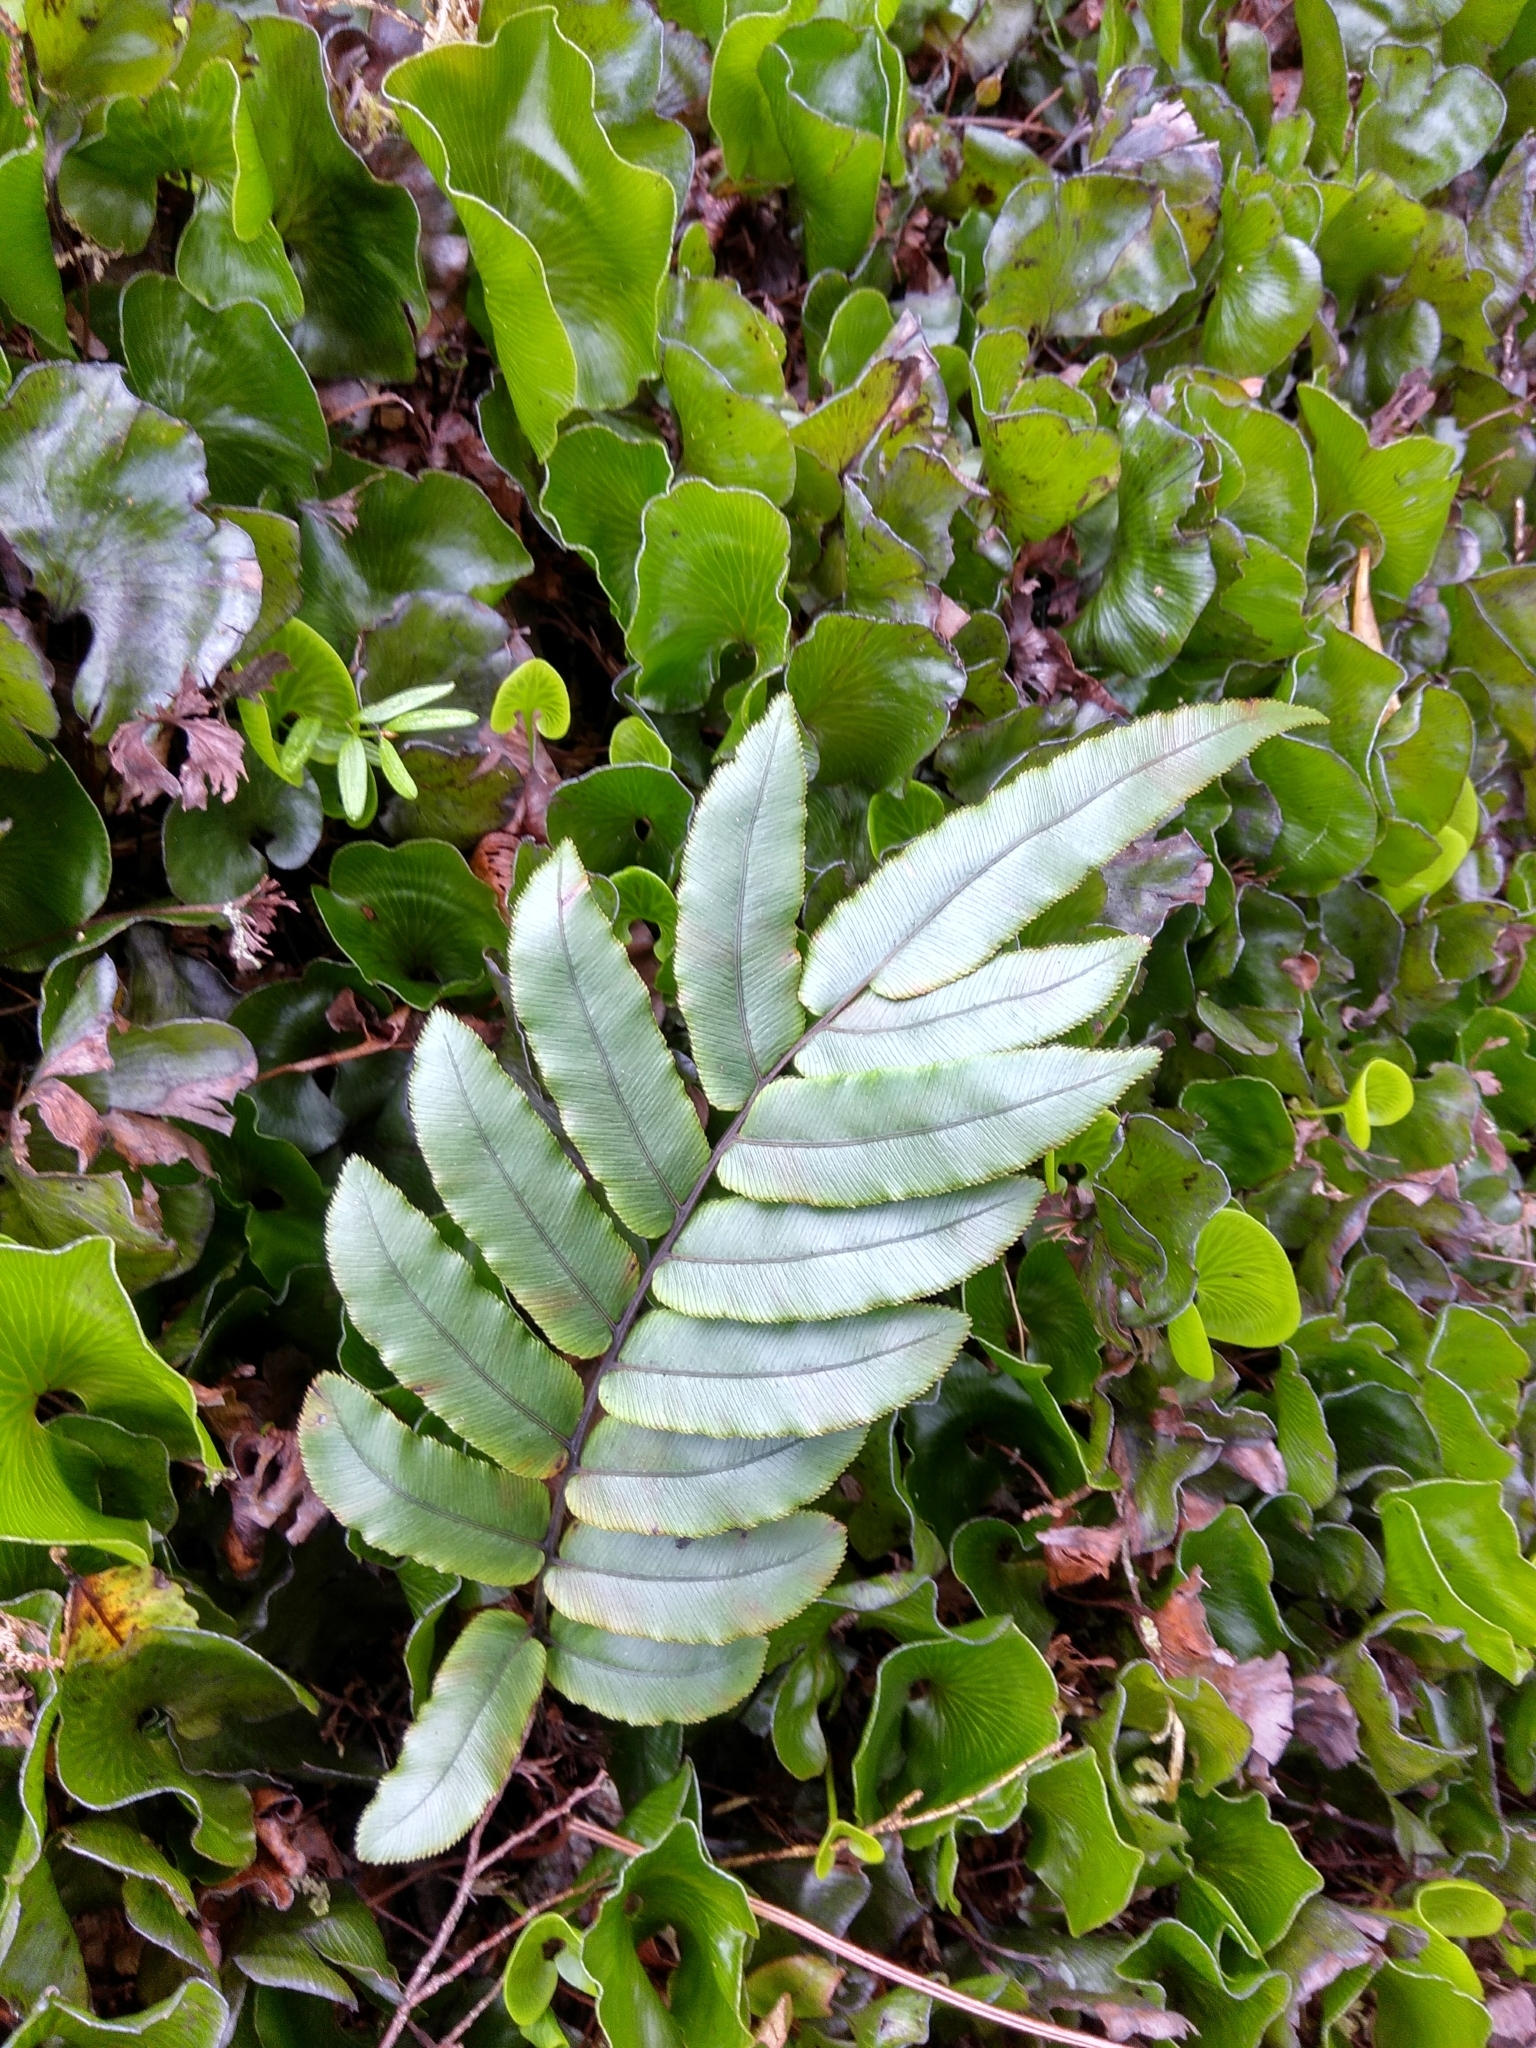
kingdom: Plantae
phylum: Tracheophyta
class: Polypodiopsida
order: Polypodiales
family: Blechnaceae
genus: Parablechnum
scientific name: Parablechnum procerum
